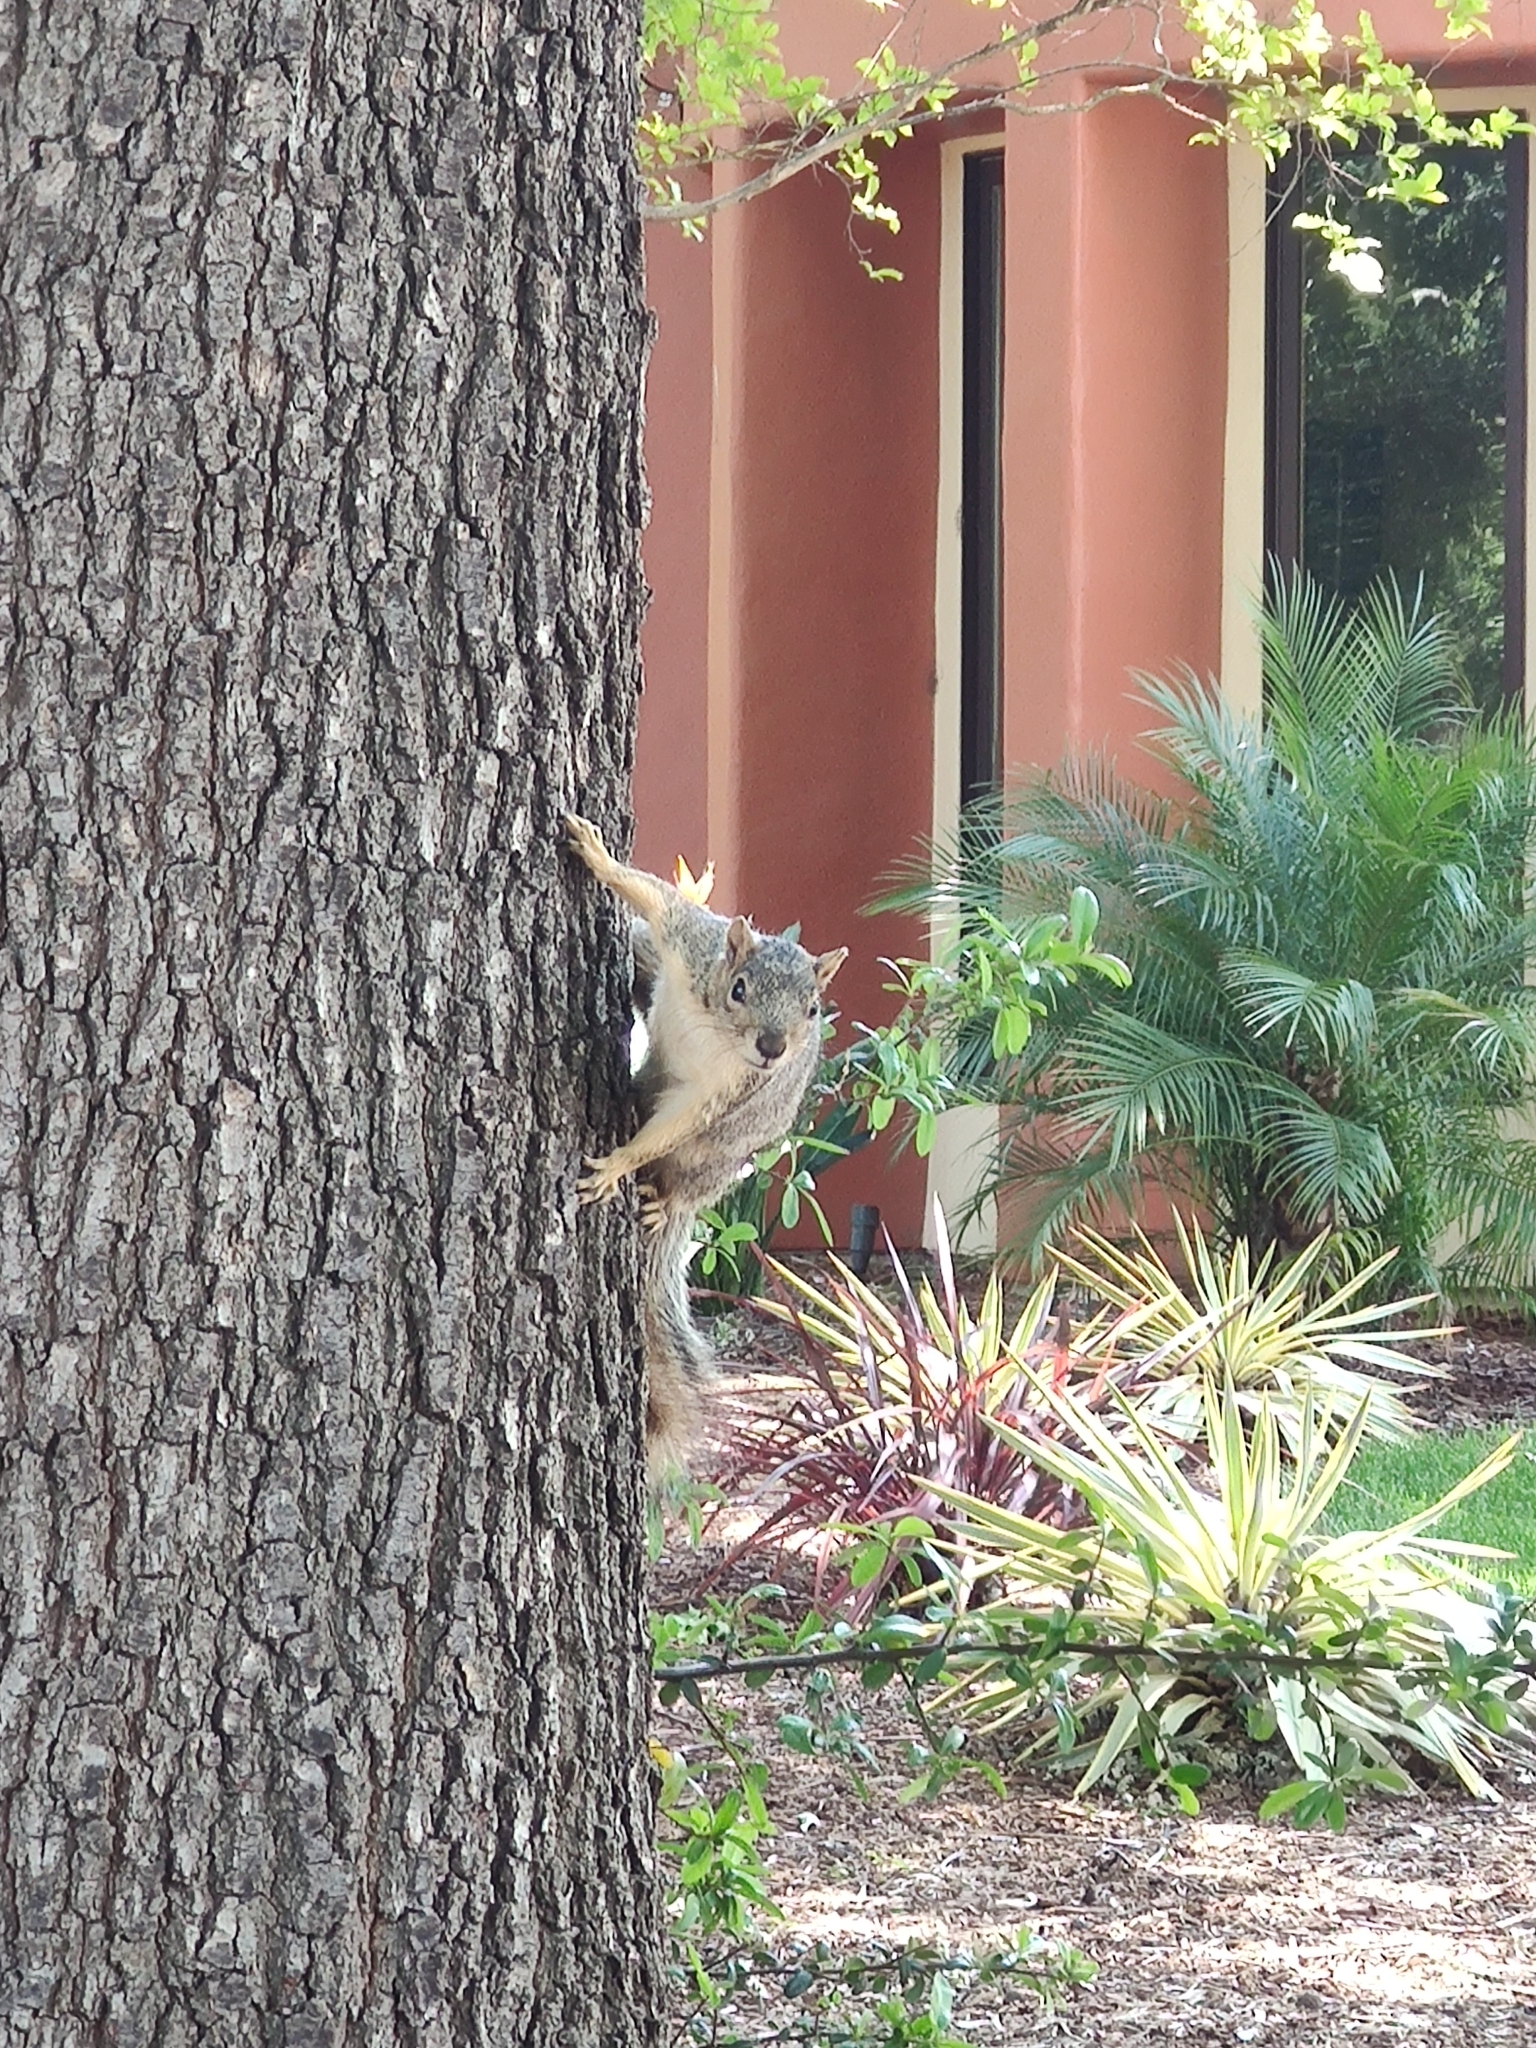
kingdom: Animalia
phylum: Chordata
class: Mammalia
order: Rodentia
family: Sciuridae
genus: Sciurus
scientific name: Sciurus niger
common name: Fox squirrel
